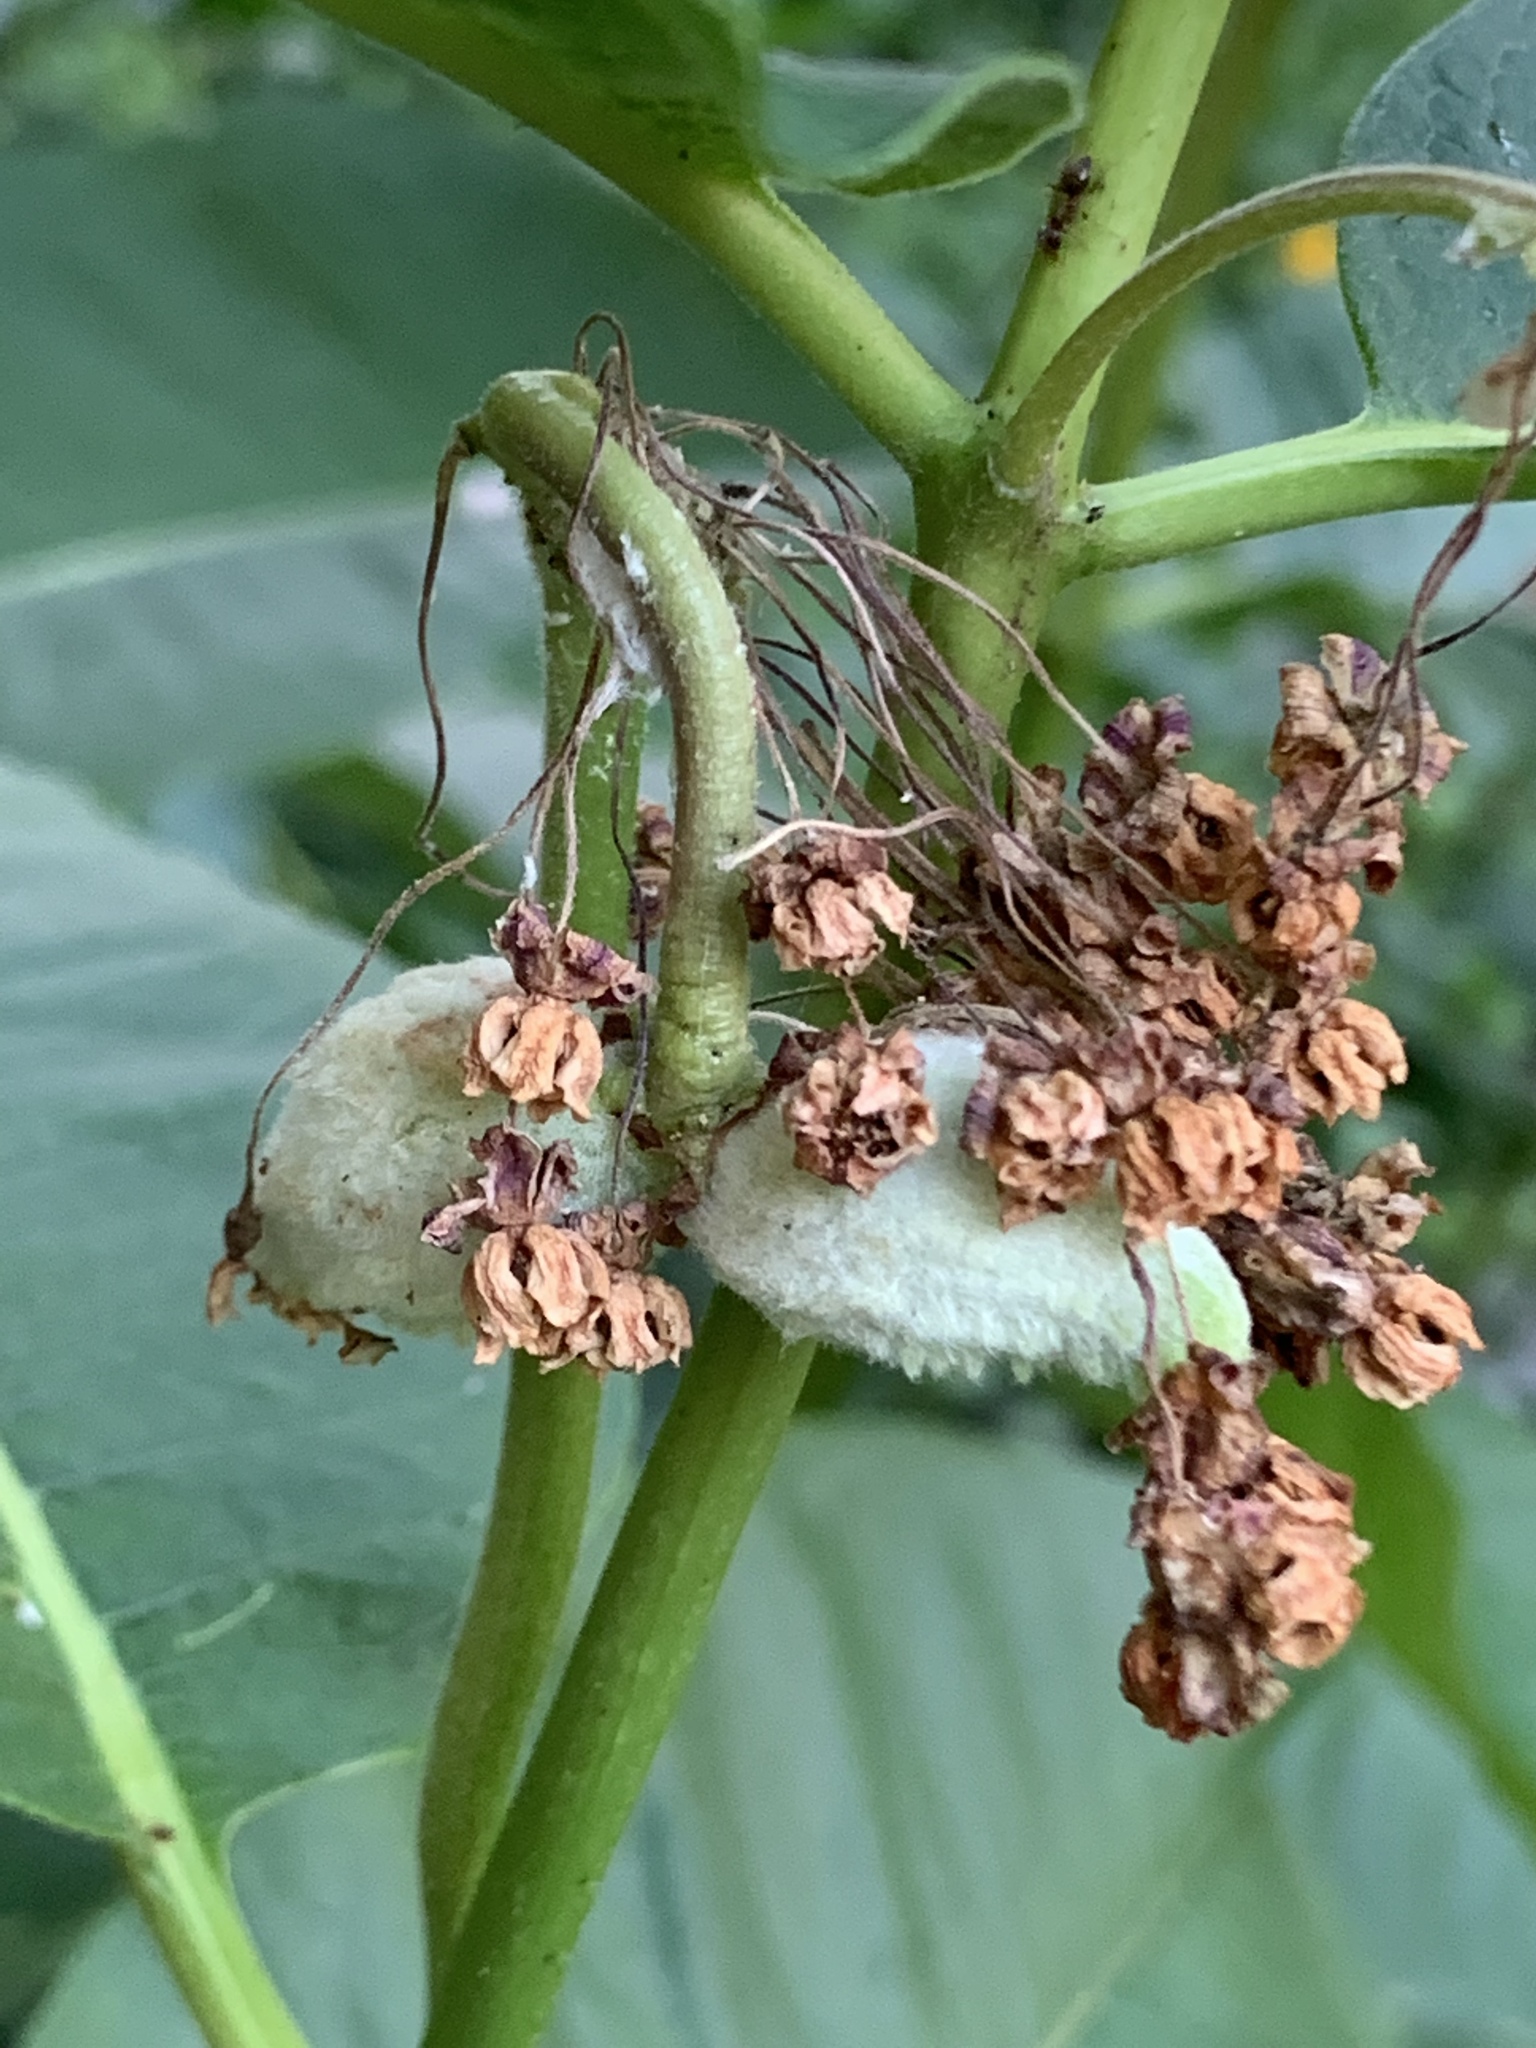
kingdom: Plantae
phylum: Tracheophyta
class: Magnoliopsida
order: Gentianales
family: Apocynaceae
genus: Asclepias
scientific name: Asclepias syriaca
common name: Common milkweed
